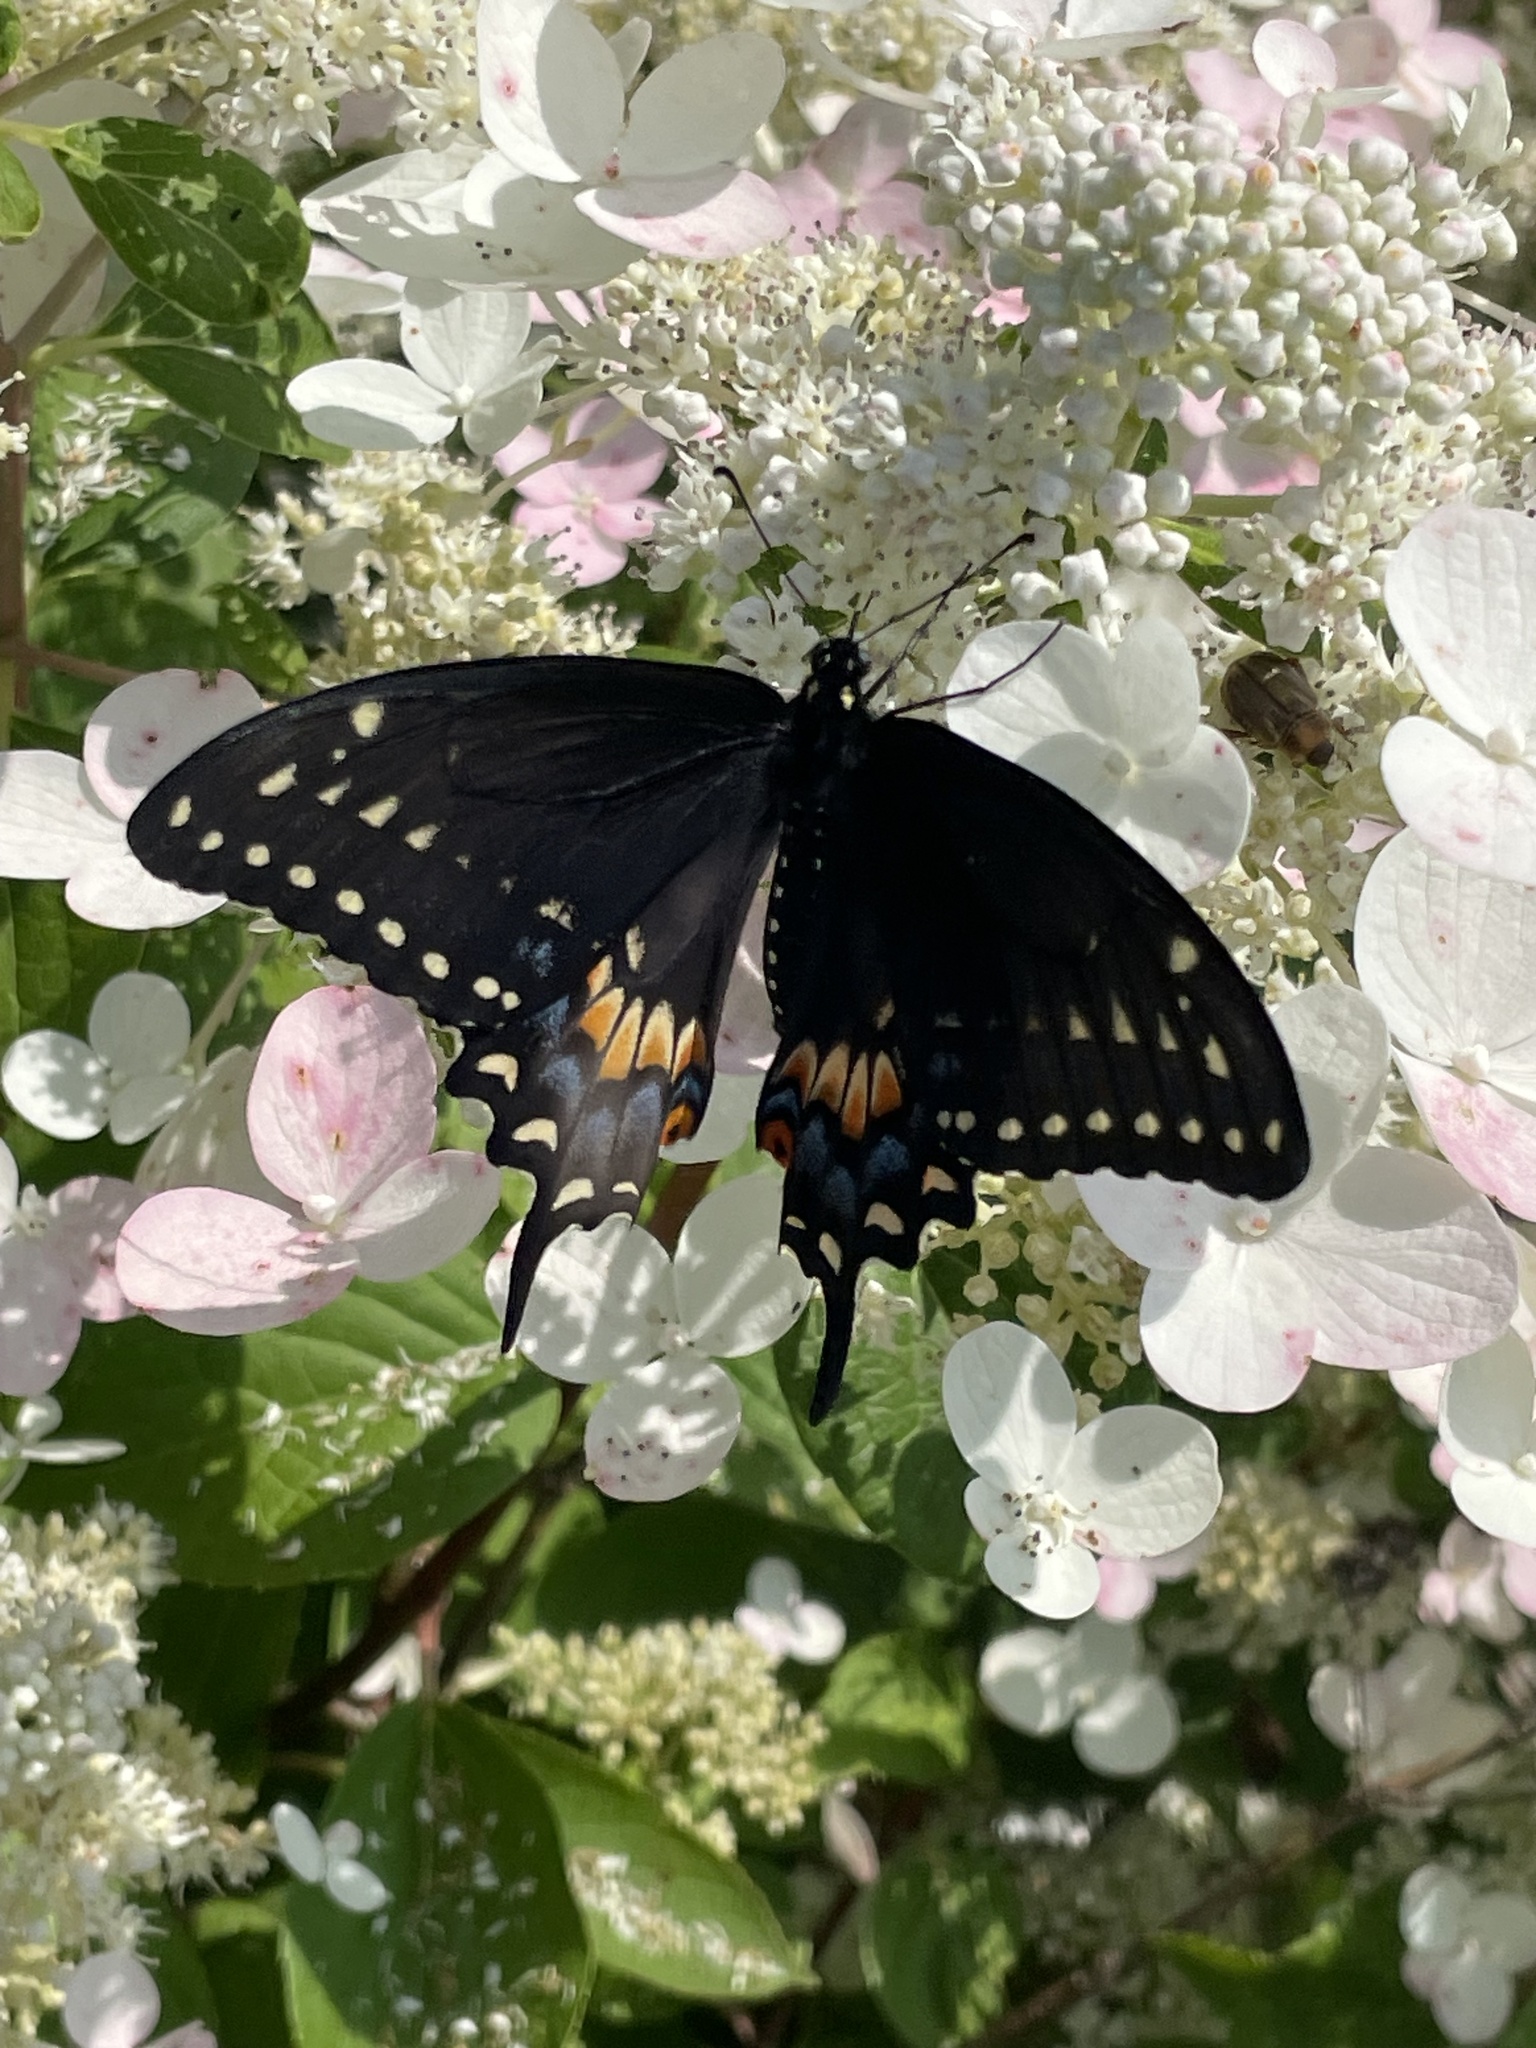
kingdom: Animalia
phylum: Arthropoda
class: Insecta
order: Lepidoptera
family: Papilionidae
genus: Papilio
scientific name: Papilio polyxenes
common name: Black swallowtail
